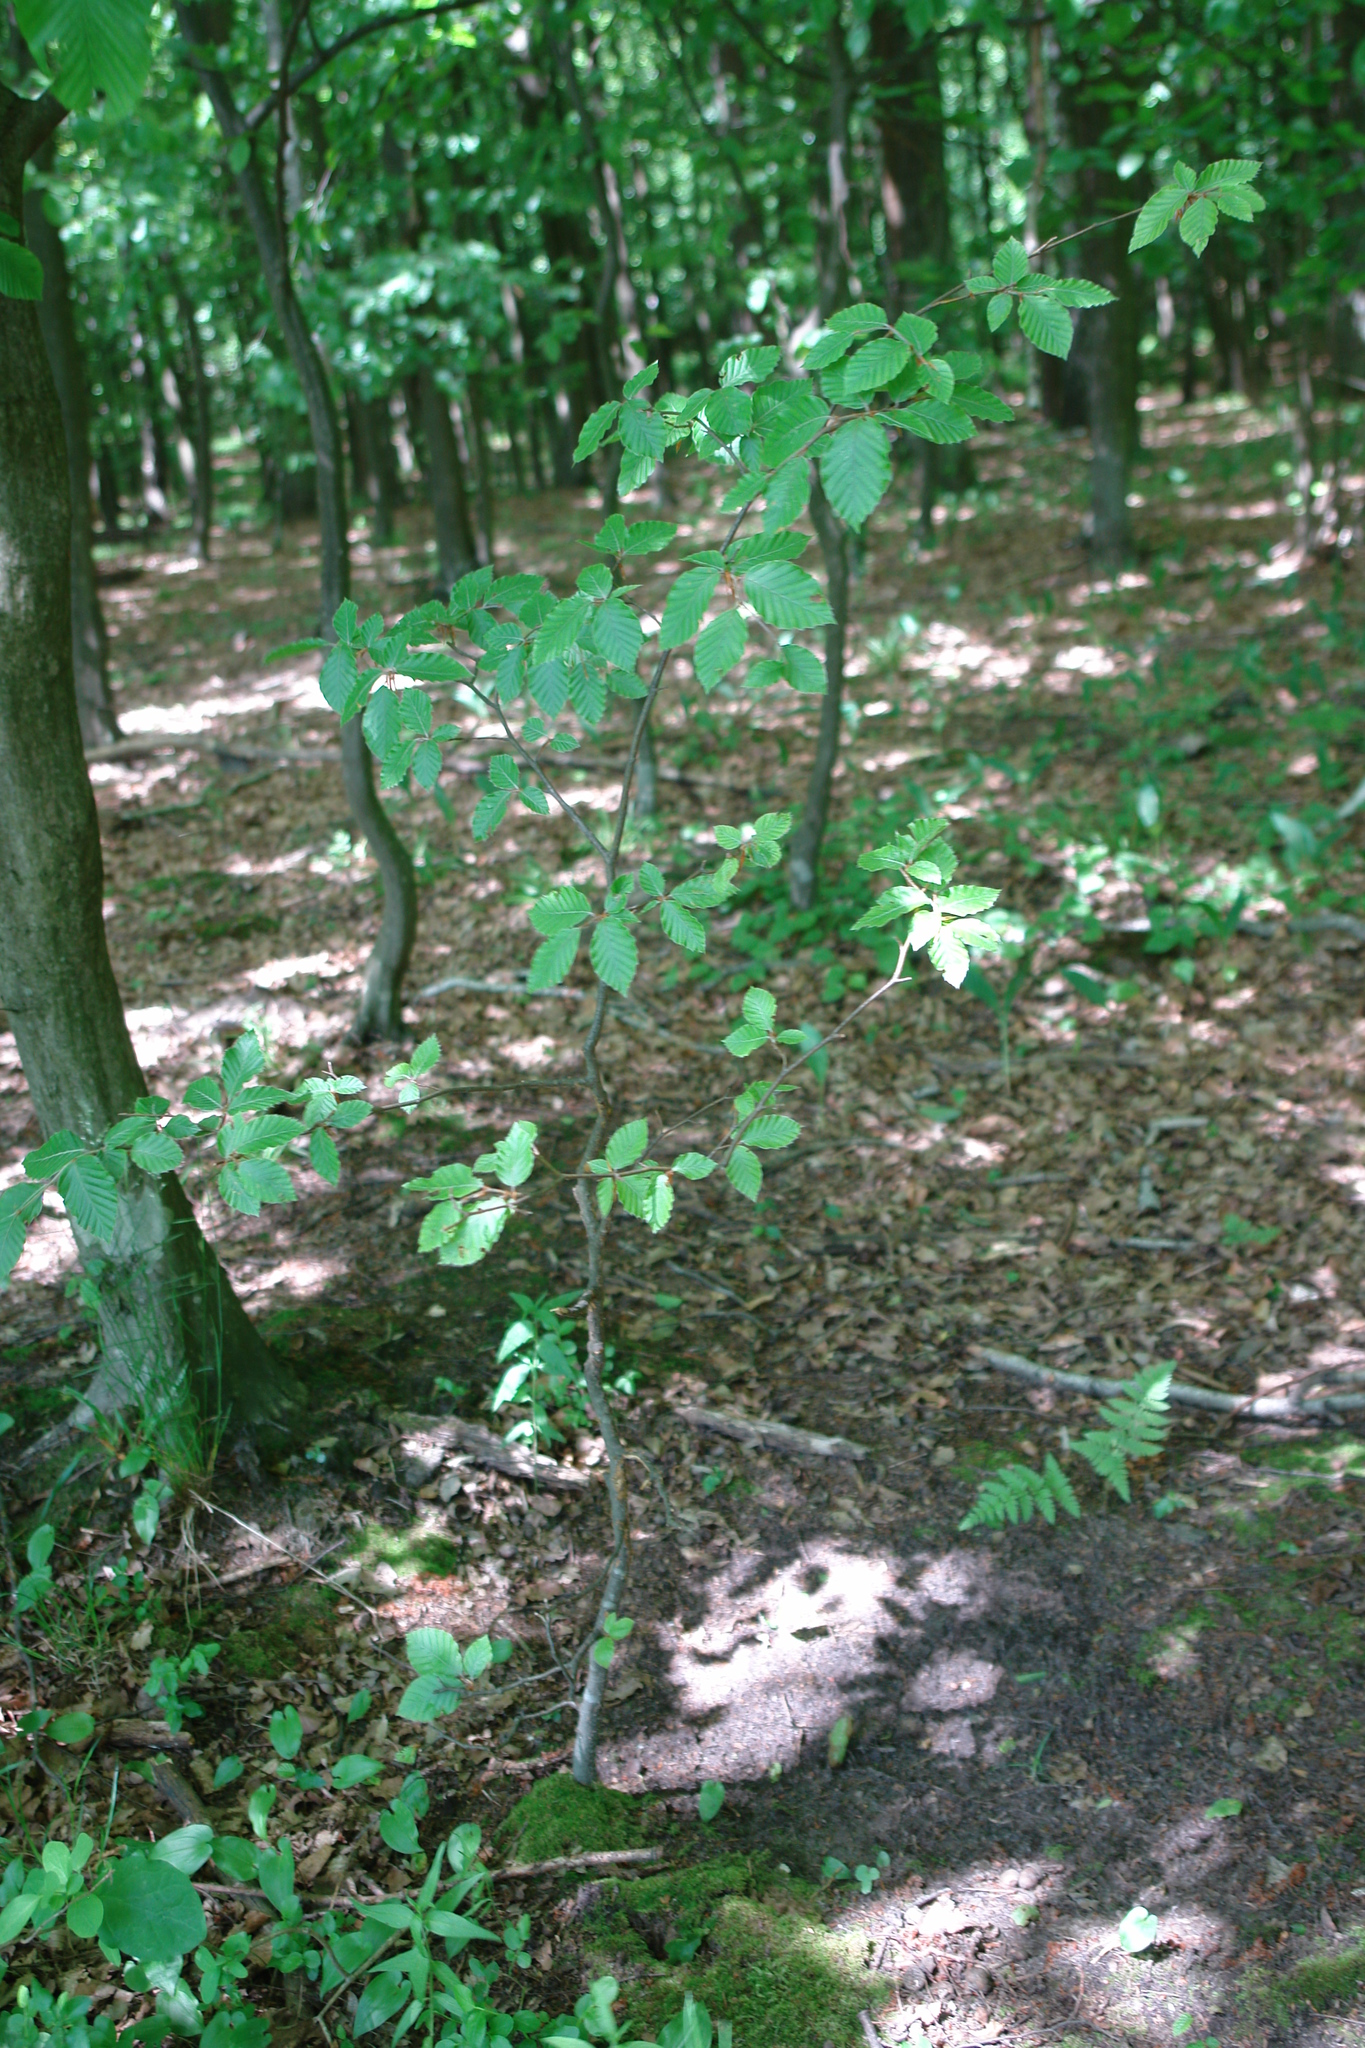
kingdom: Plantae
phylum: Tracheophyta
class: Magnoliopsida
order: Fagales
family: Betulaceae
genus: Carpinus
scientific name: Carpinus betulus
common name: Hornbeam
